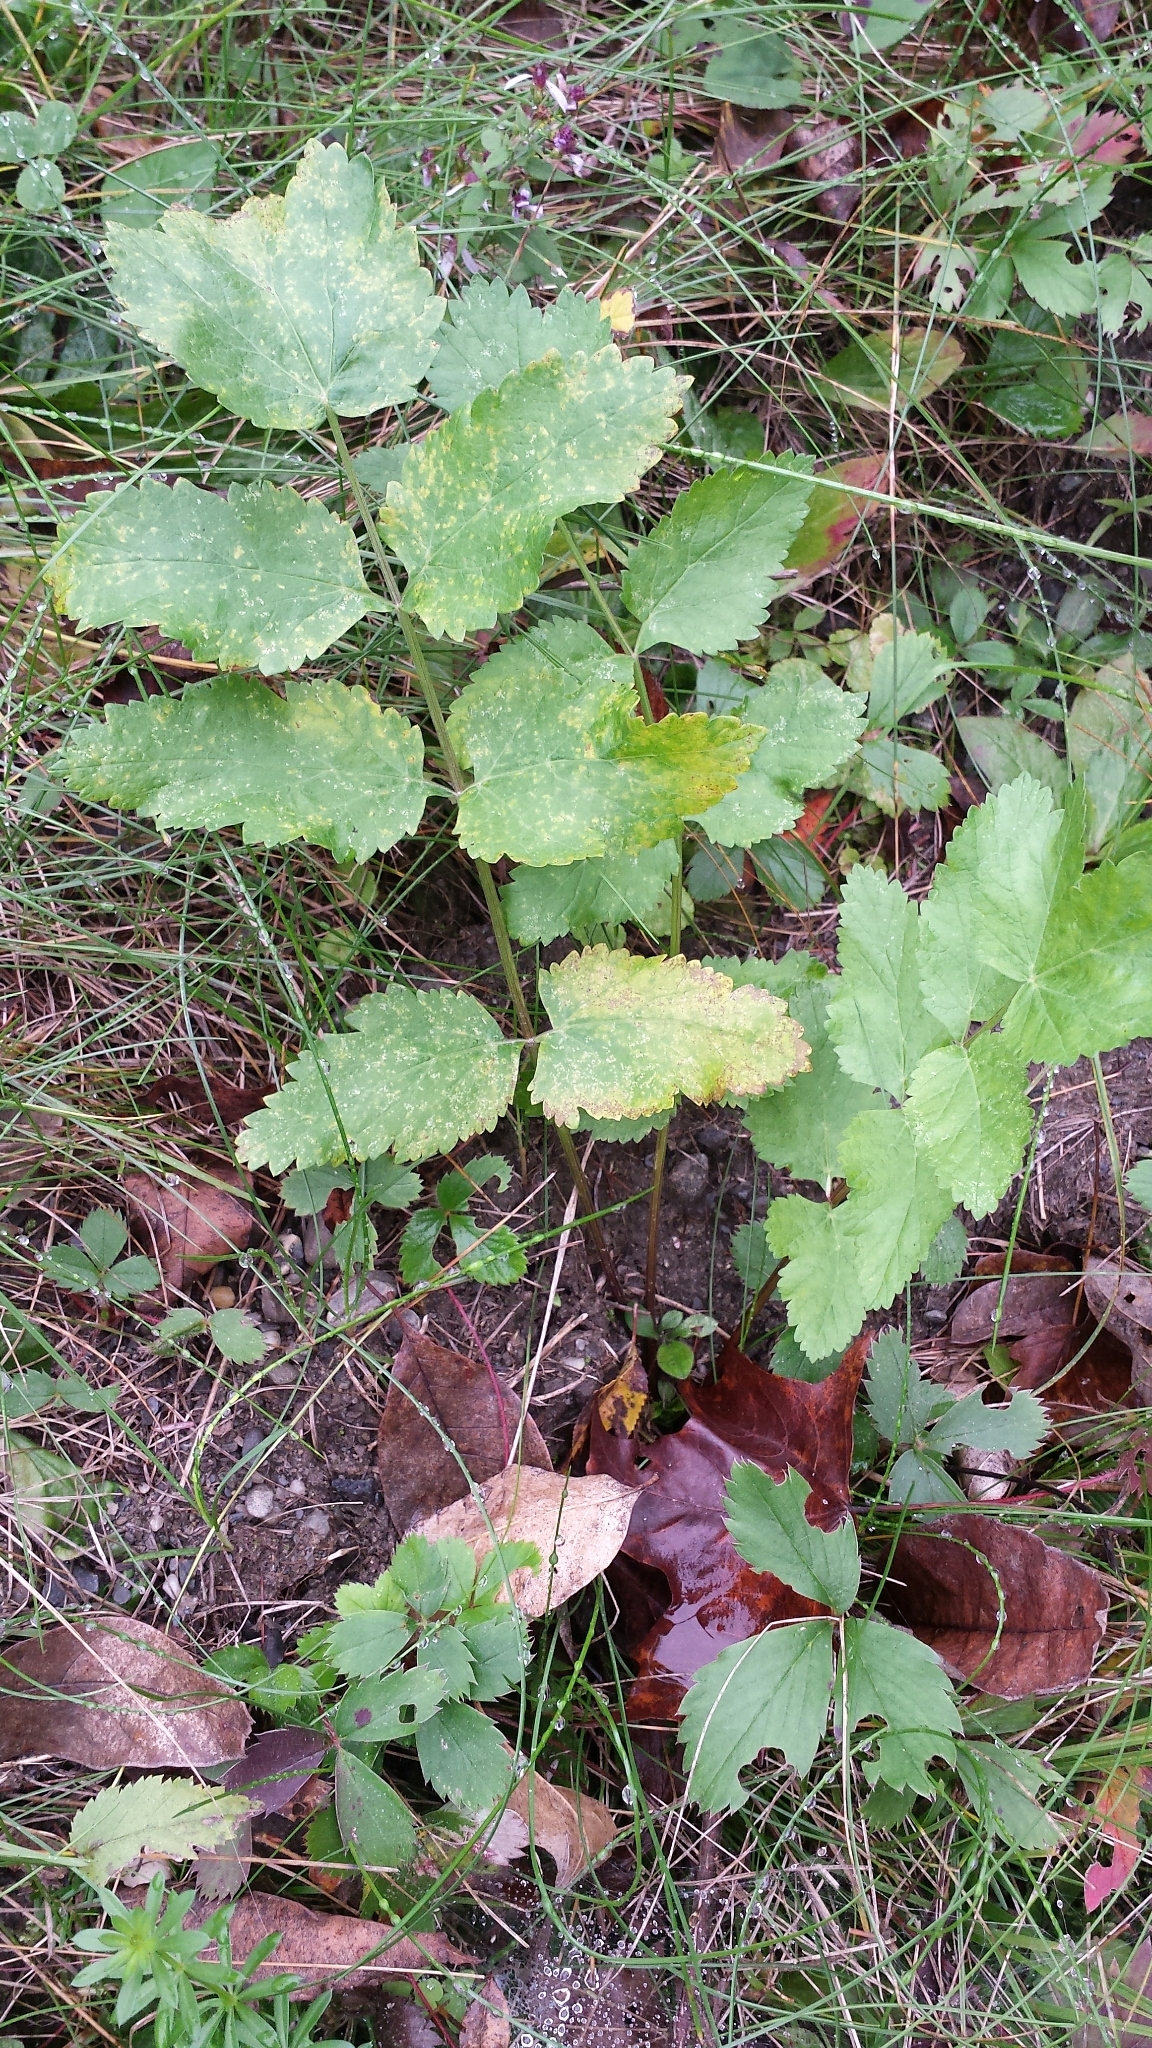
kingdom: Plantae
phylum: Tracheophyta
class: Magnoliopsida
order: Apiales
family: Apiaceae
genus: Pastinaca
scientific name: Pastinaca sativa
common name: Wild parsnip
